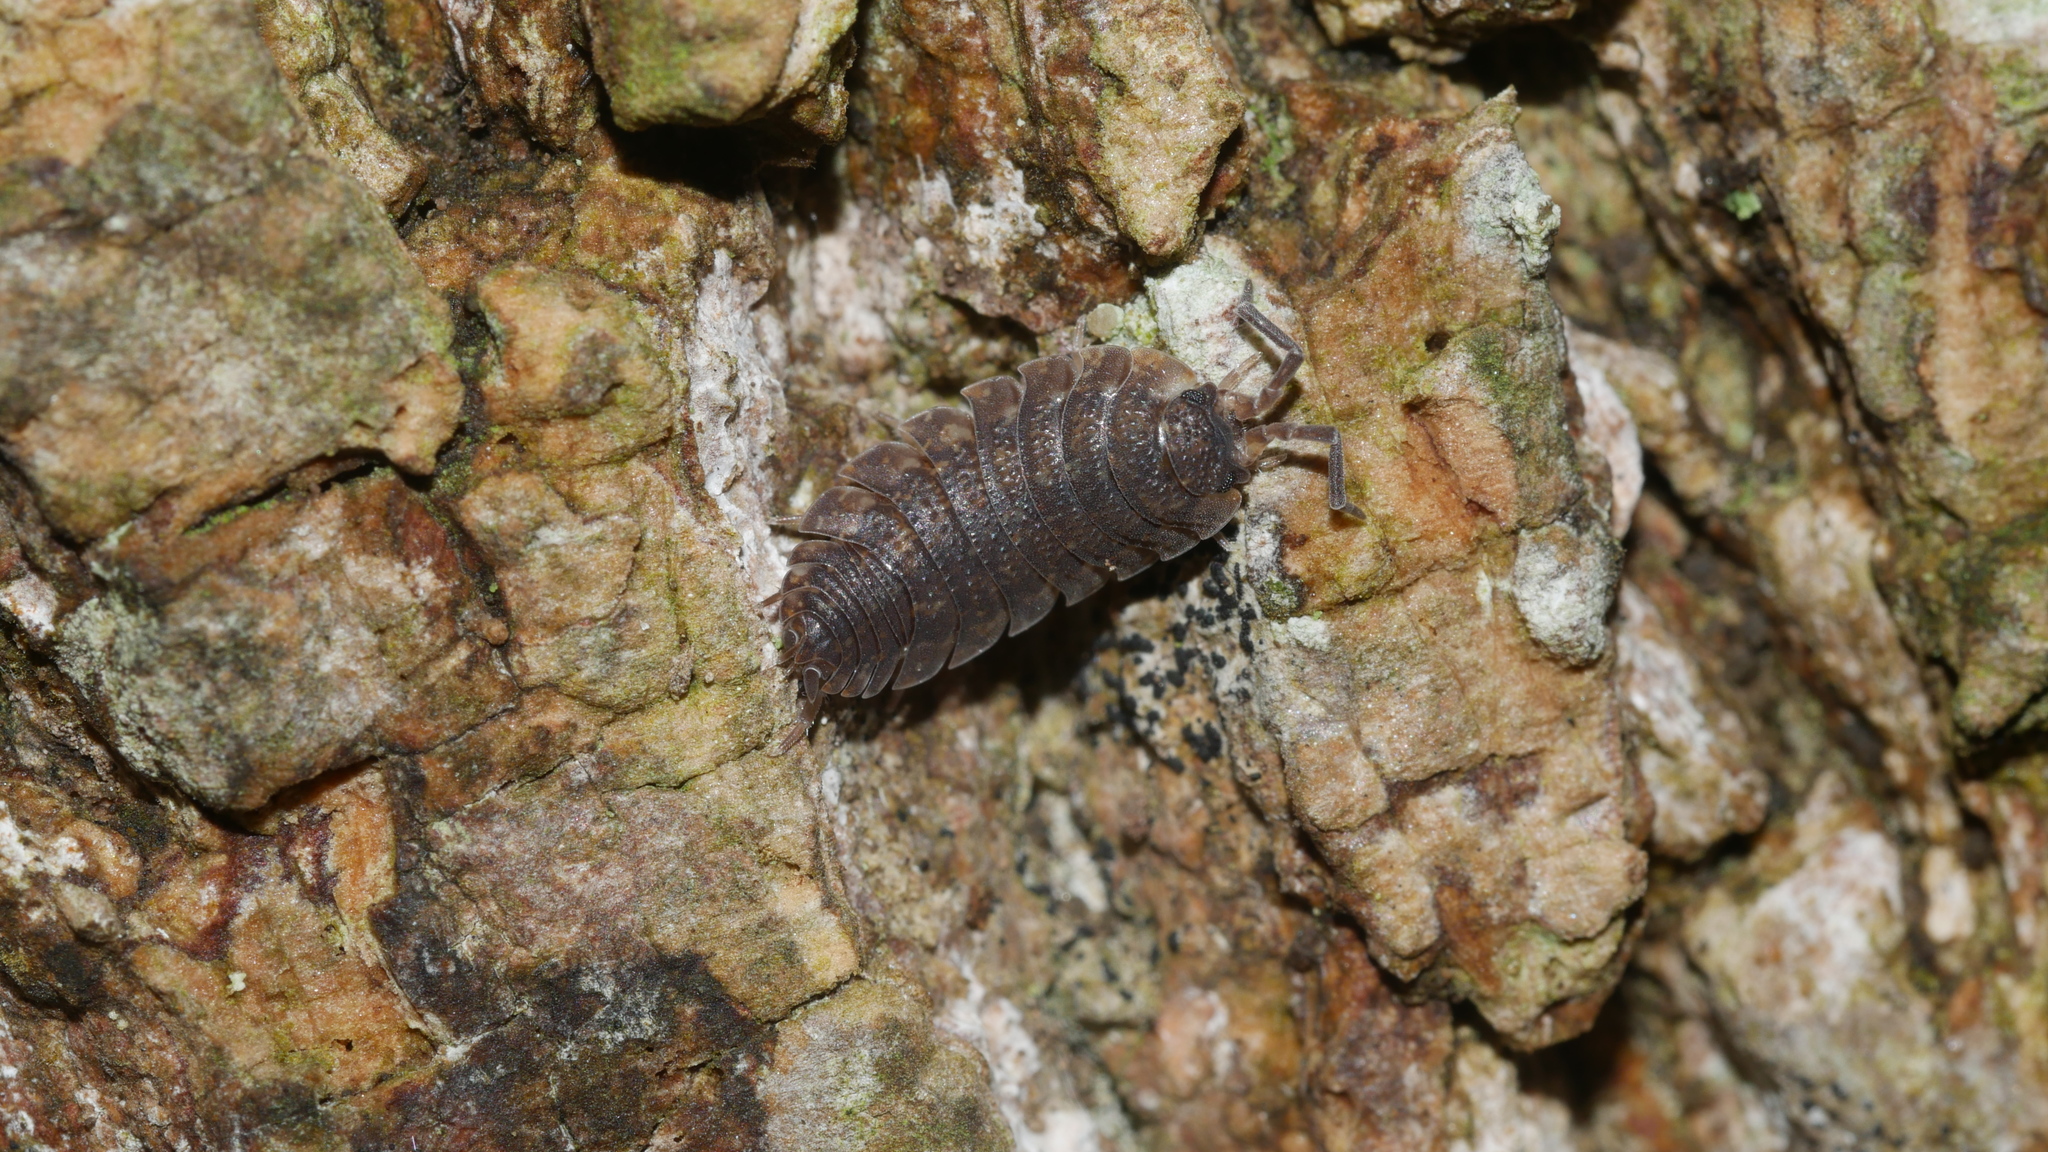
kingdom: Animalia
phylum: Arthropoda
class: Malacostraca
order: Isopoda
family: Porcellionidae
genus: Porcellio
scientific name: Porcellio scaber
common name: Common rough woodlouse
